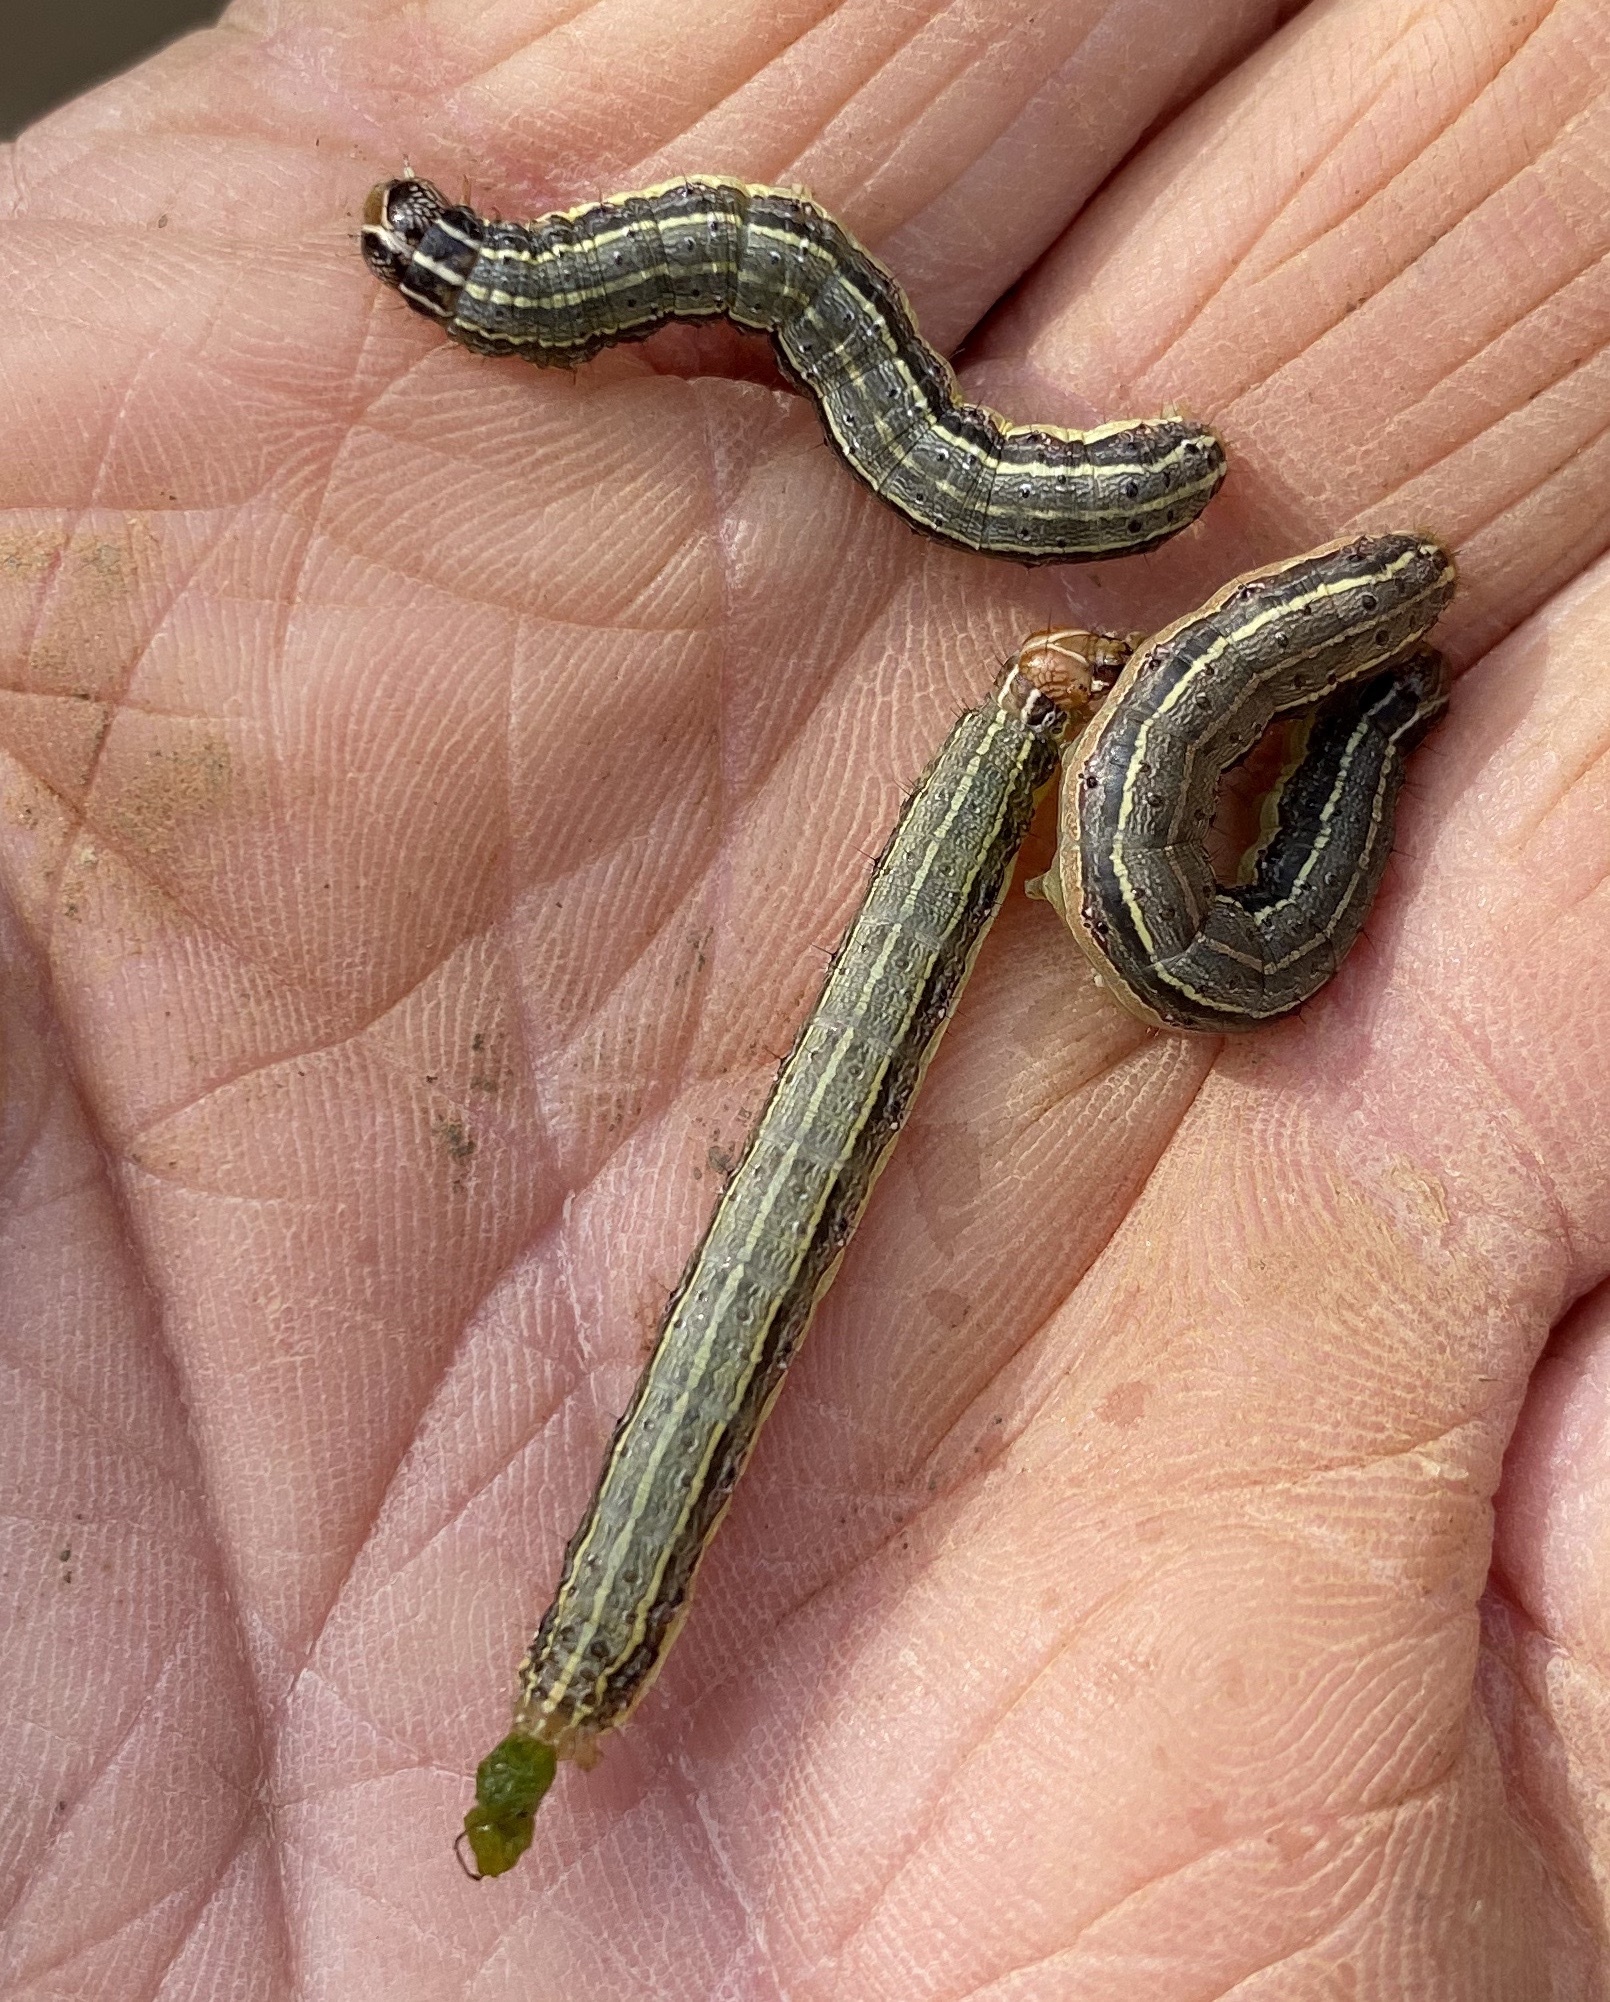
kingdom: Animalia
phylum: Arthropoda
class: Insecta
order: Lepidoptera
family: Noctuidae
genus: Spodoptera
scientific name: Spodoptera frugiperda
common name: Fall armyworm
